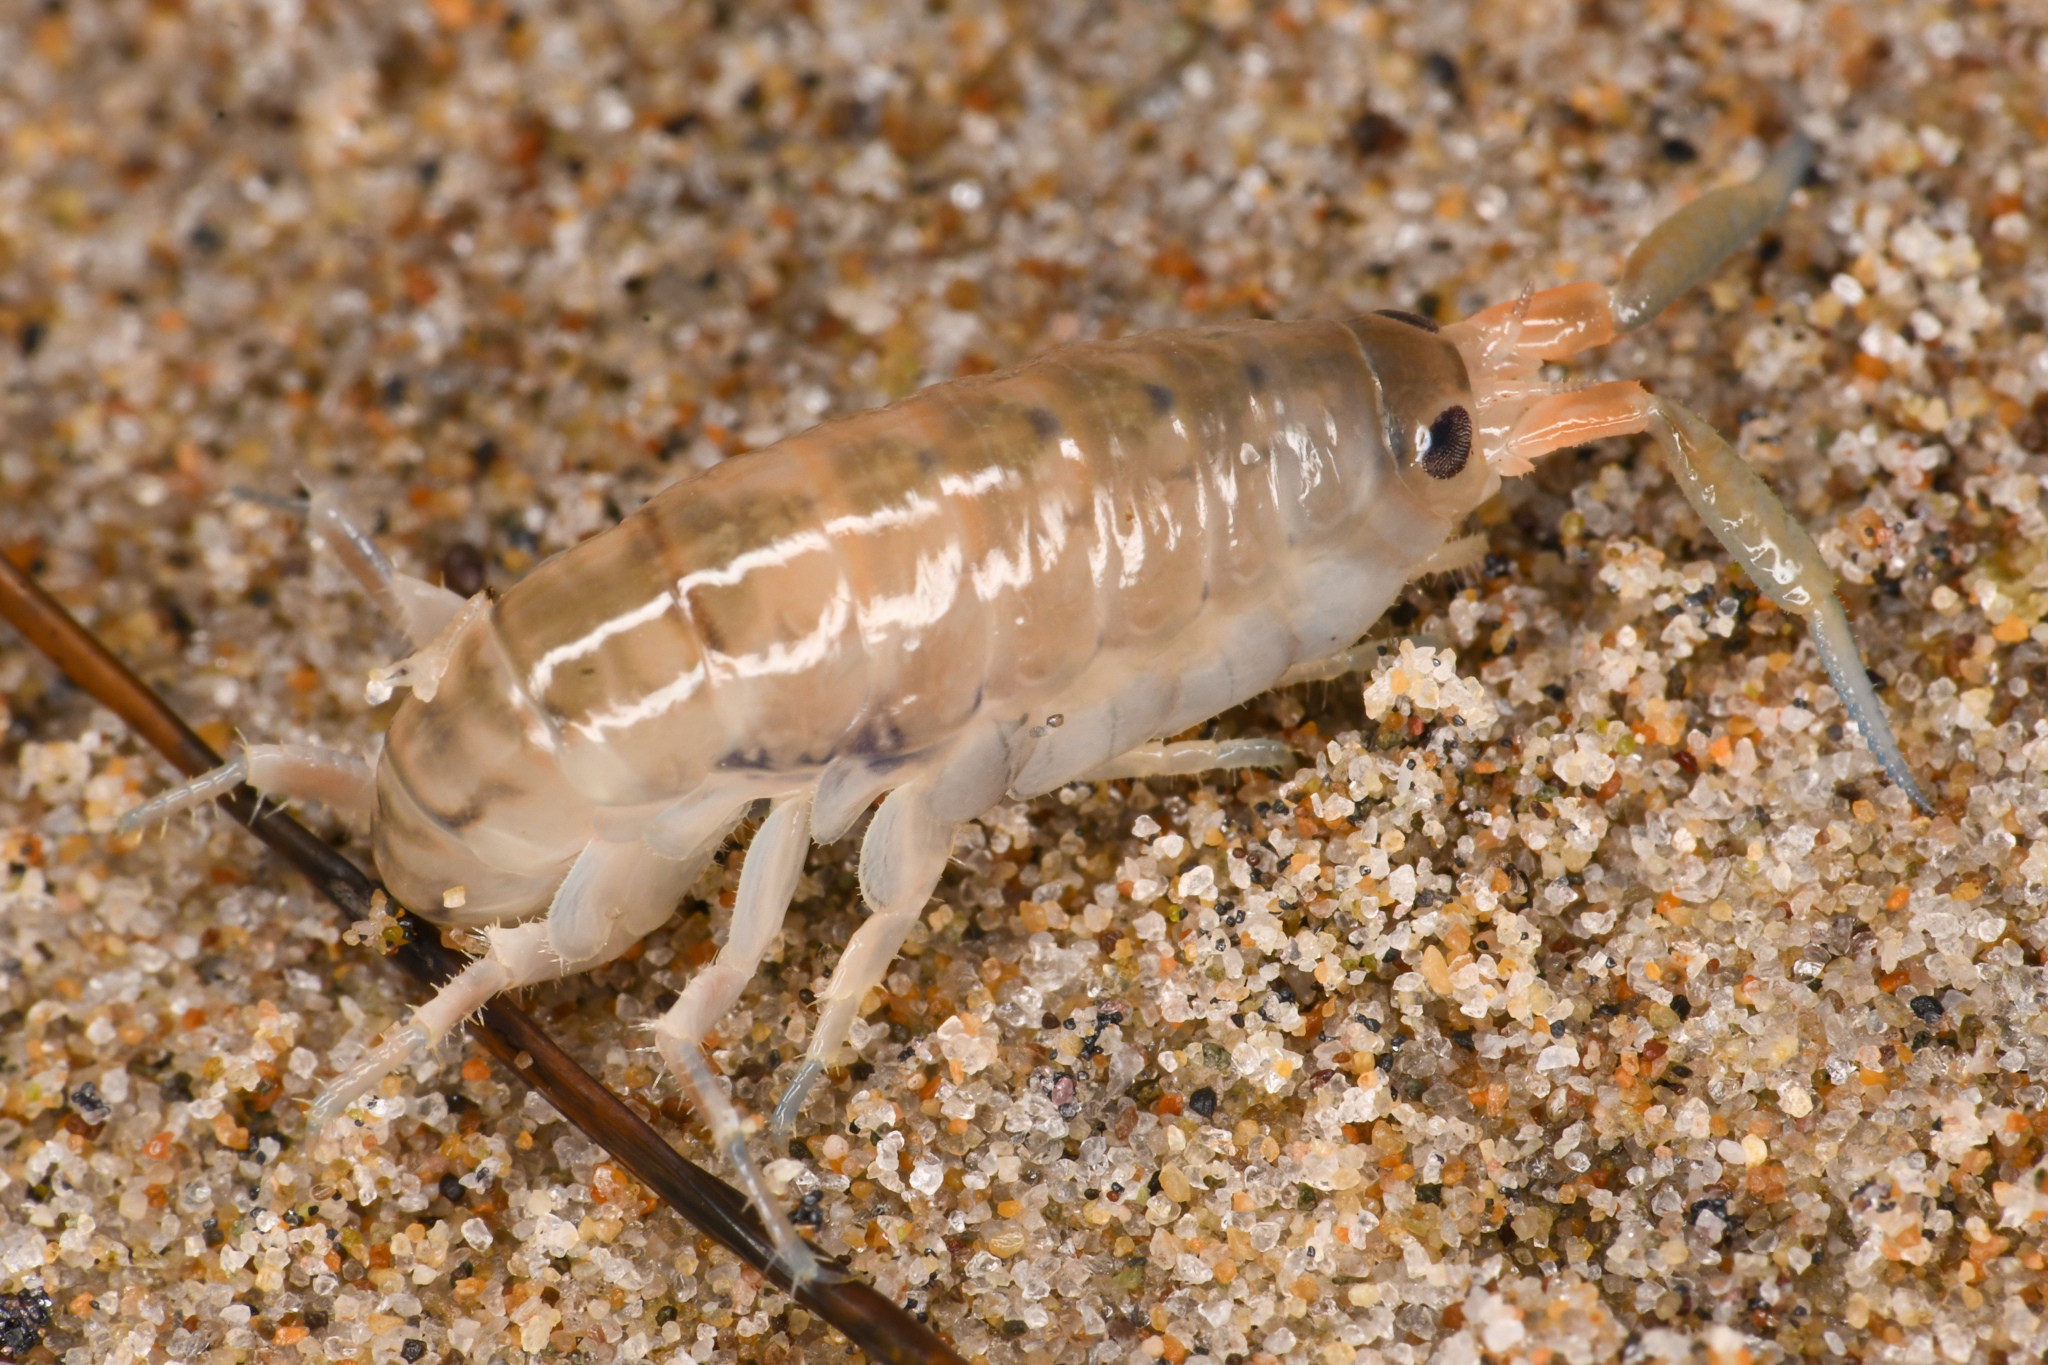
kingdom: Animalia
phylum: Arthropoda
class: Malacostraca
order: Amphipoda
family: Talitridae
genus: Megalorchestia
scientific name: Megalorchestia californiana
